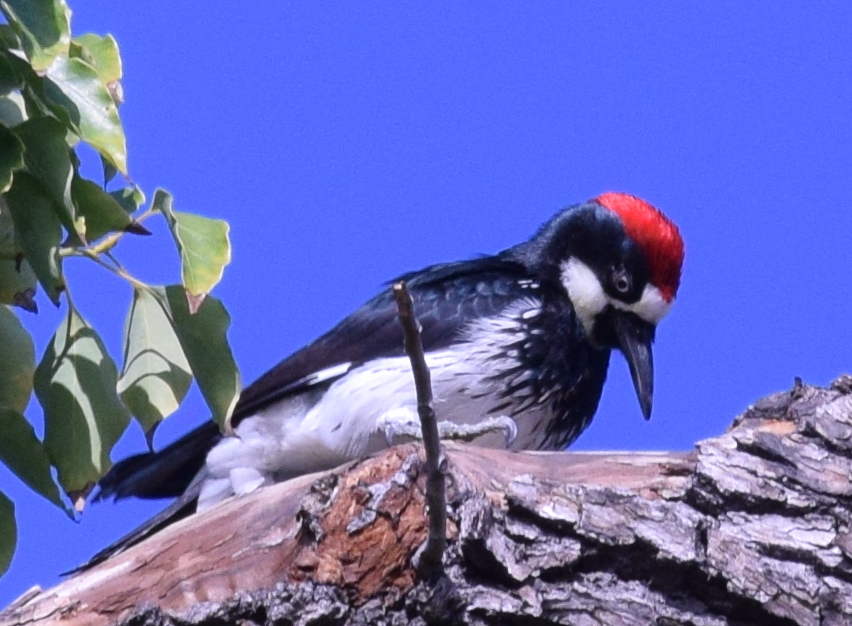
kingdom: Animalia
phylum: Chordata
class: Aves
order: Piciformes
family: Picidae
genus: Melanerpes
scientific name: Melanerpes formicivorus
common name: Acorn woodpecker
